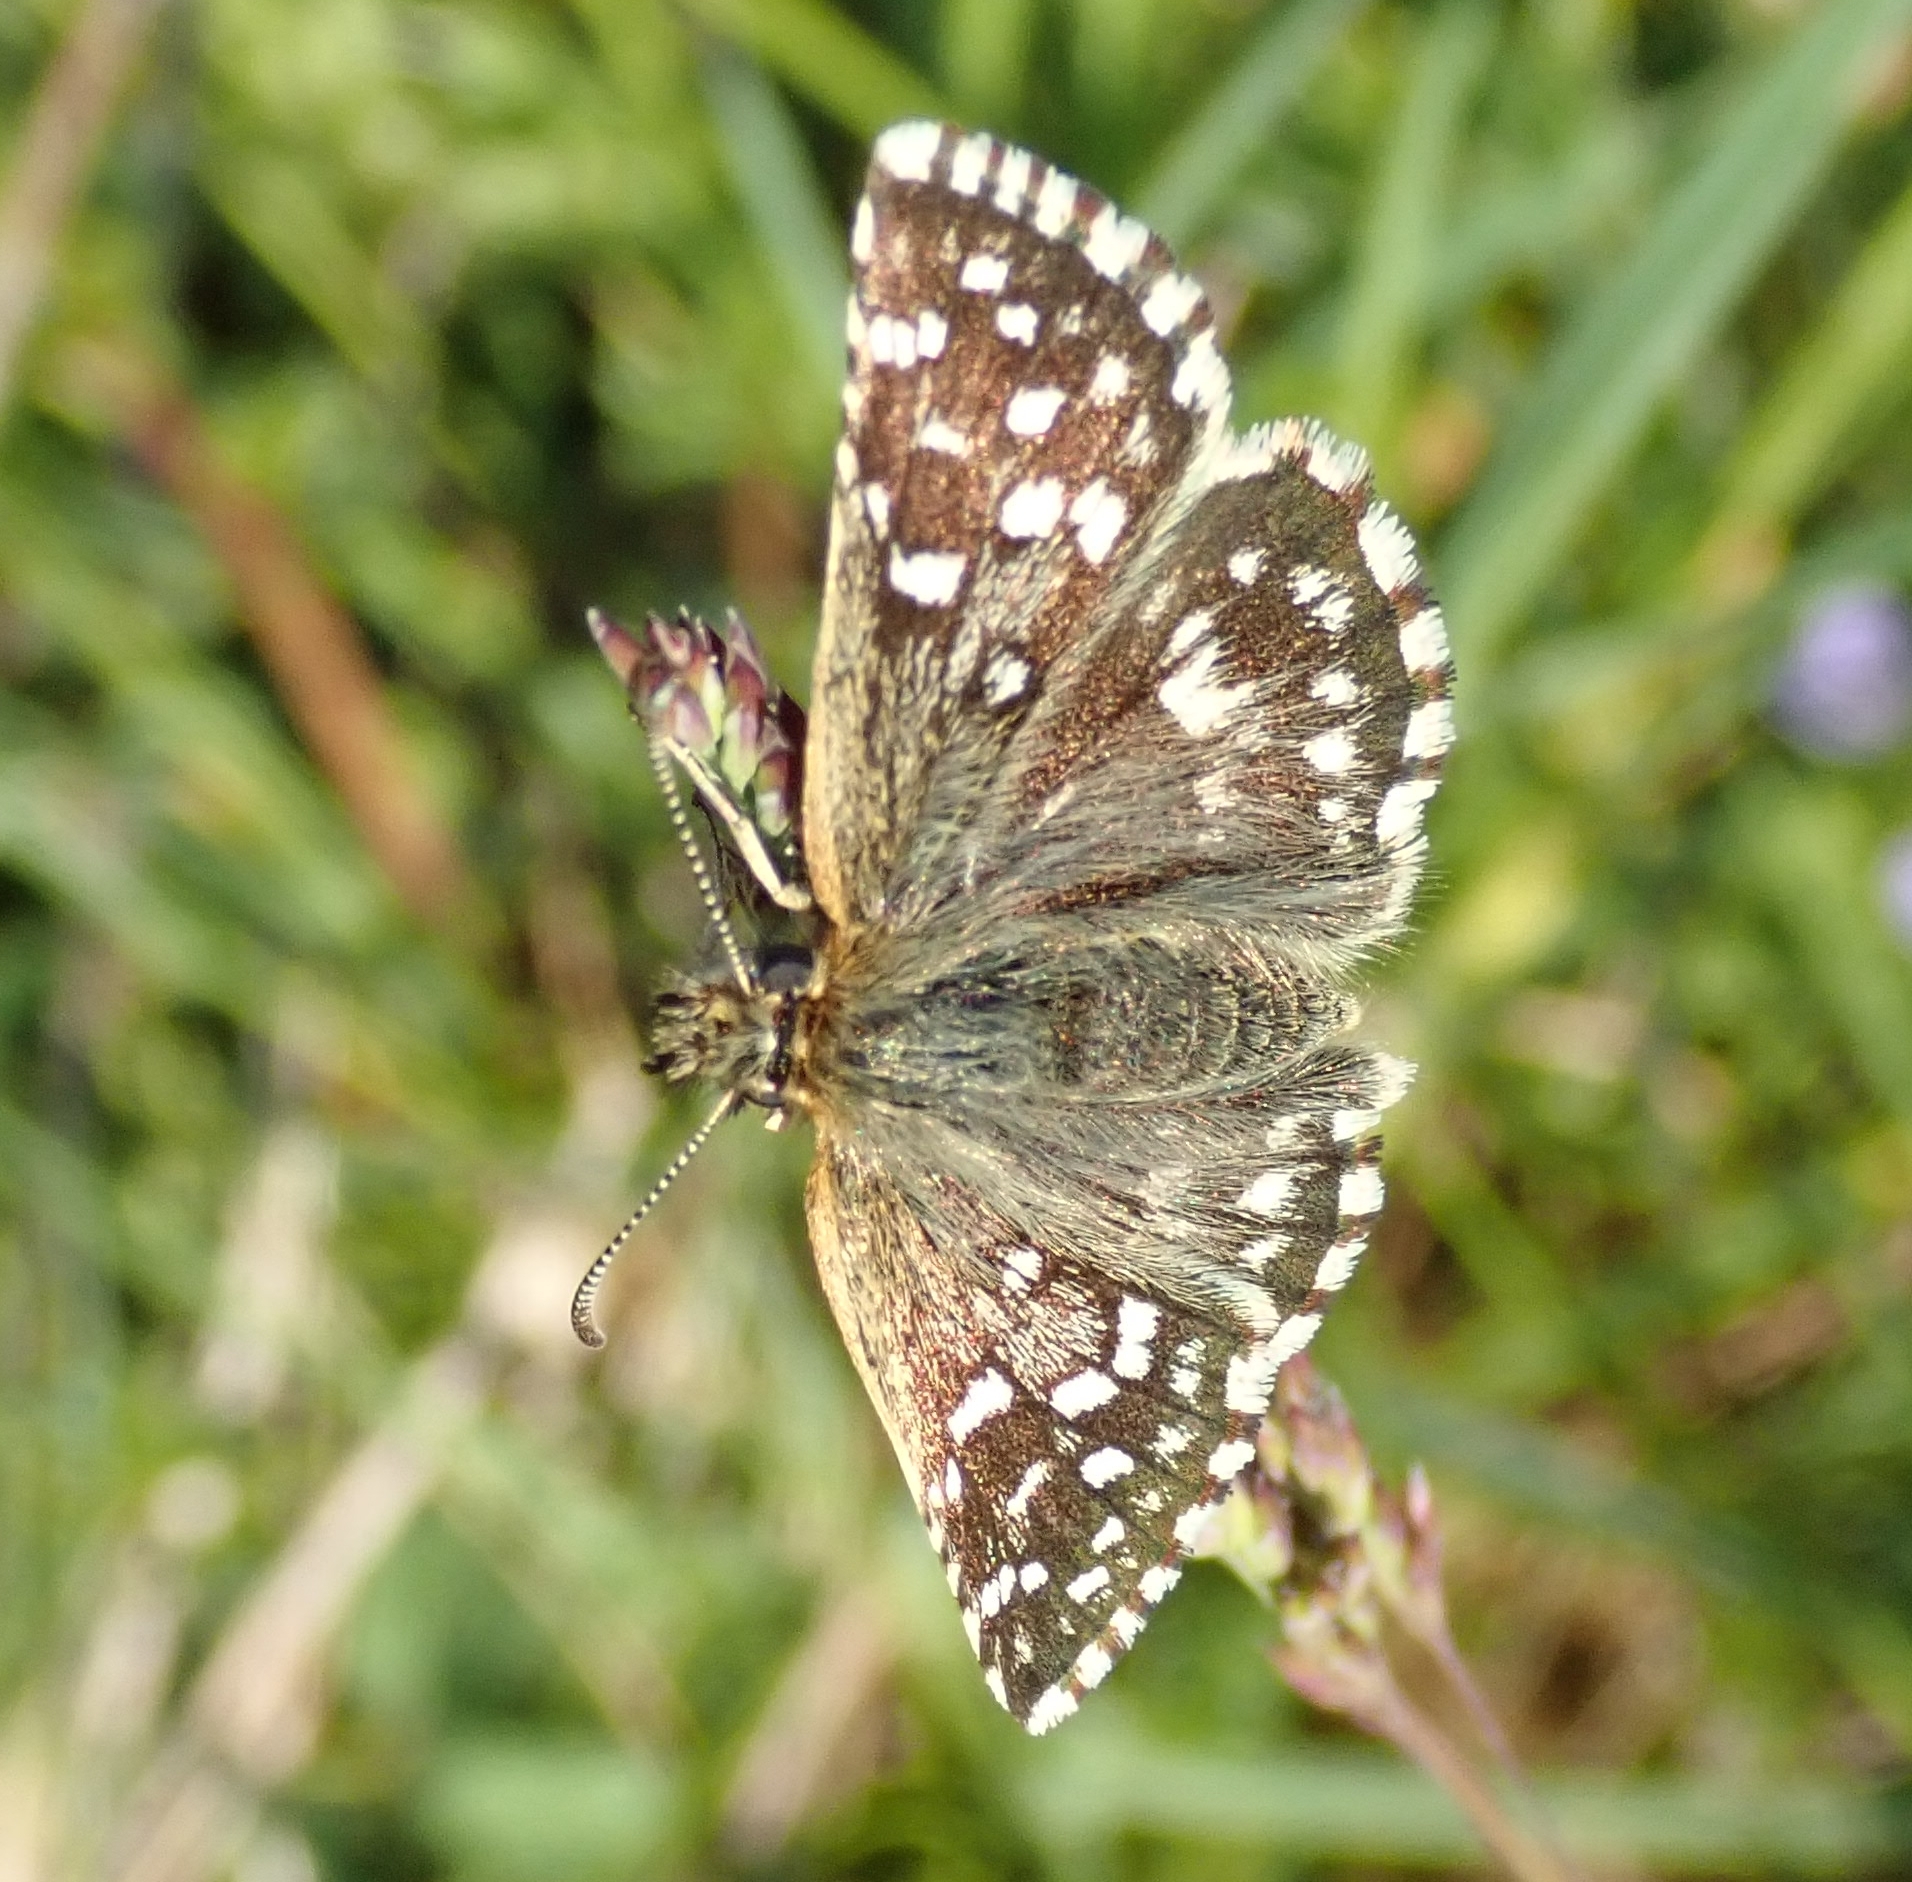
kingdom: Animalia
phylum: Arthropoda
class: Insecta
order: Lepidoptera
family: Hesperiidae
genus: Pyrgus
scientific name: Pyrgus malvae
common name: Grizzled skipper
